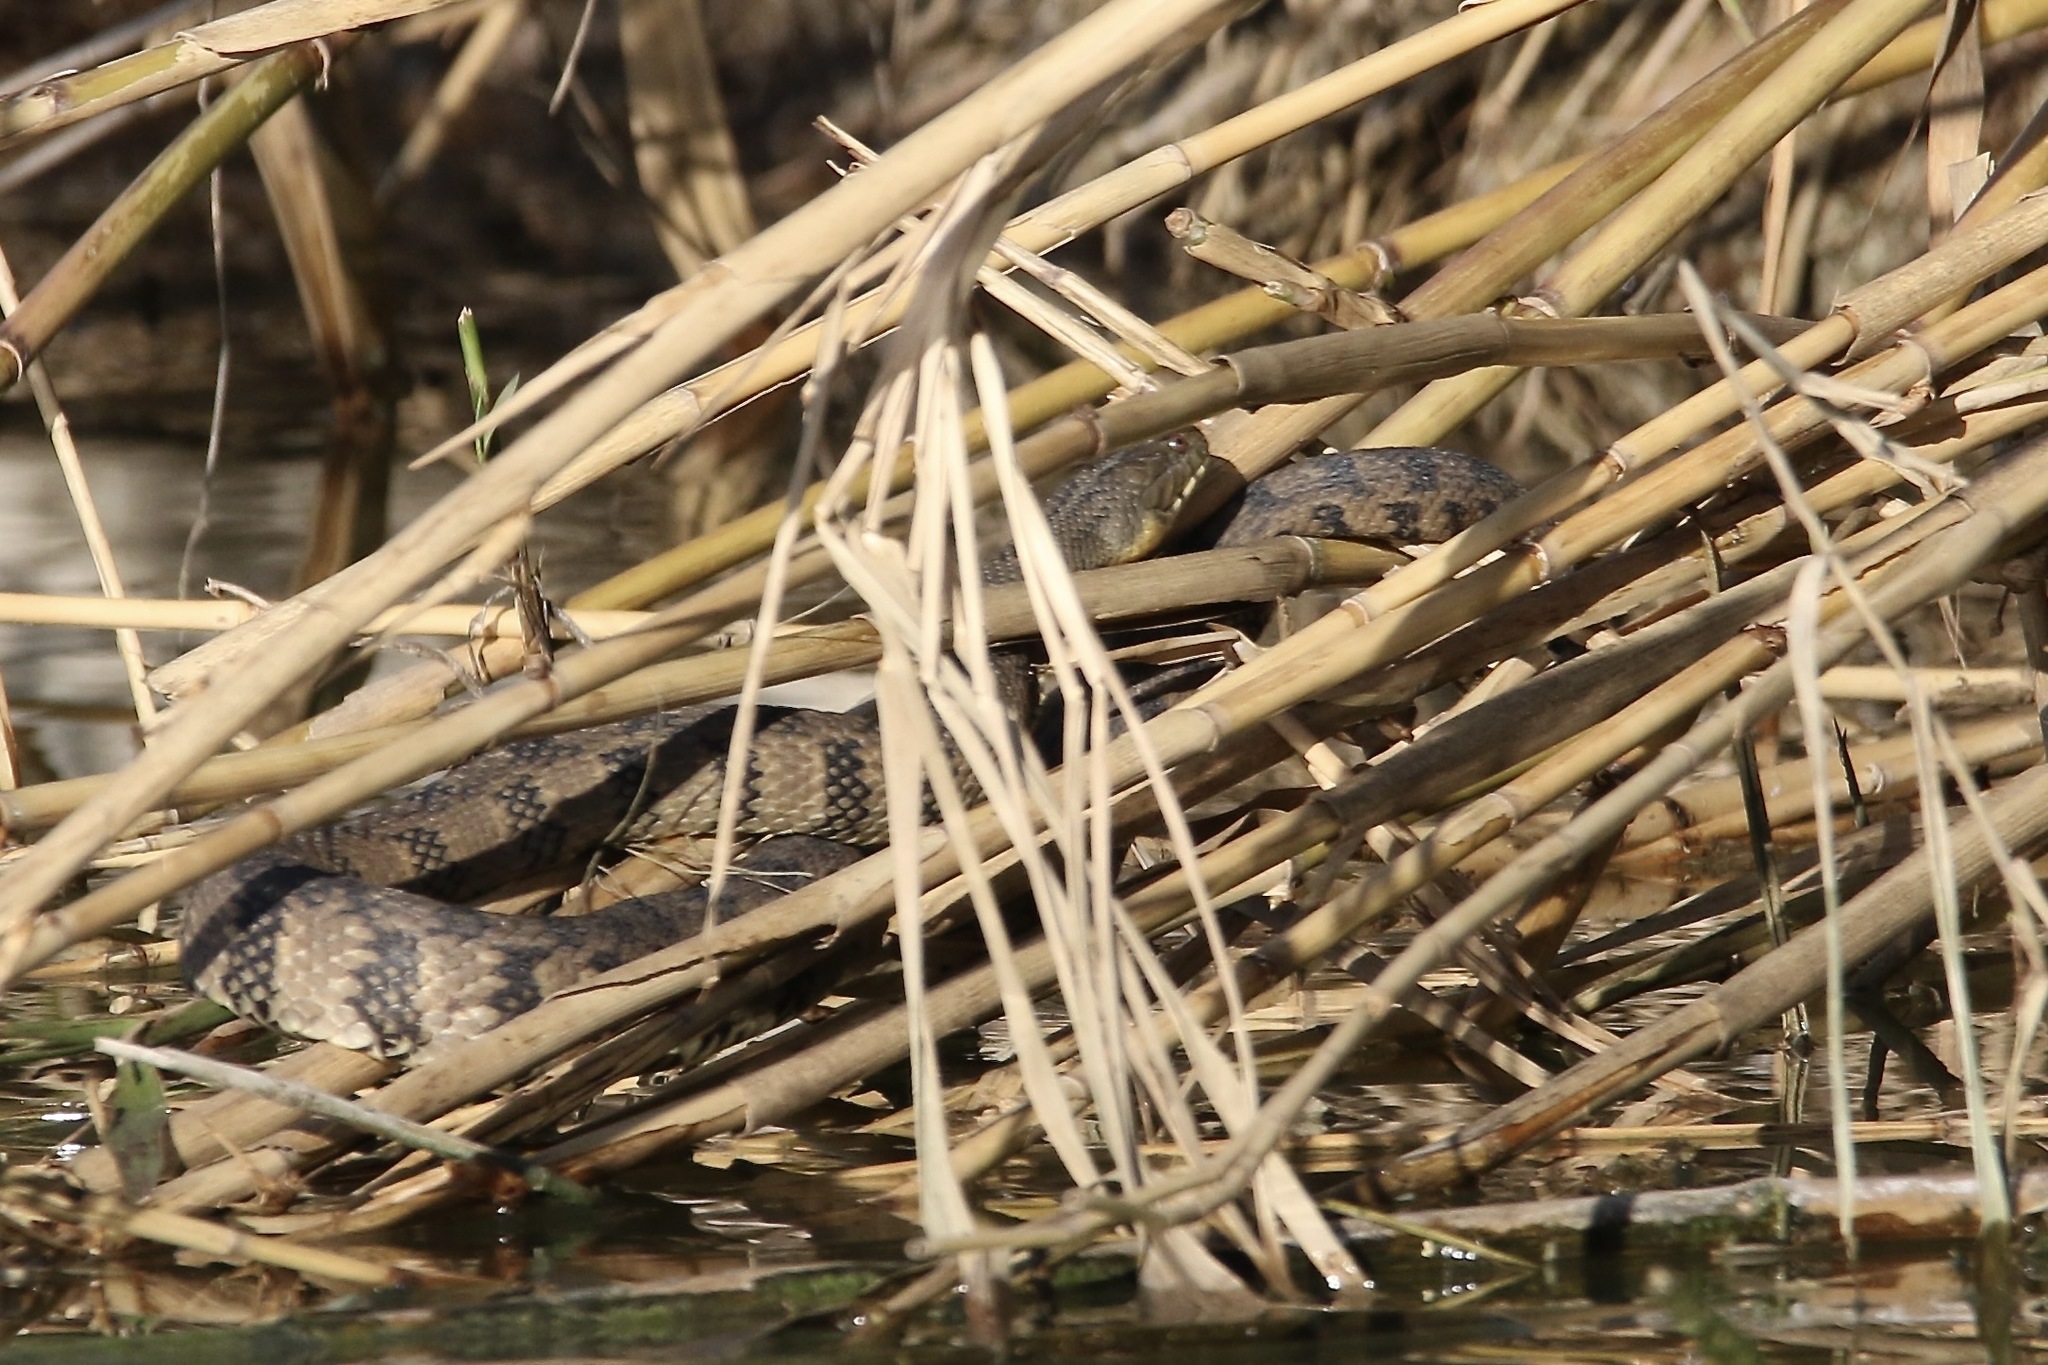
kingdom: Animalia
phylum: Chordata
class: Squamata
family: Colubridae
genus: Nerodia
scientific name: Nerodia rhombifer
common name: Diamondback water snake
